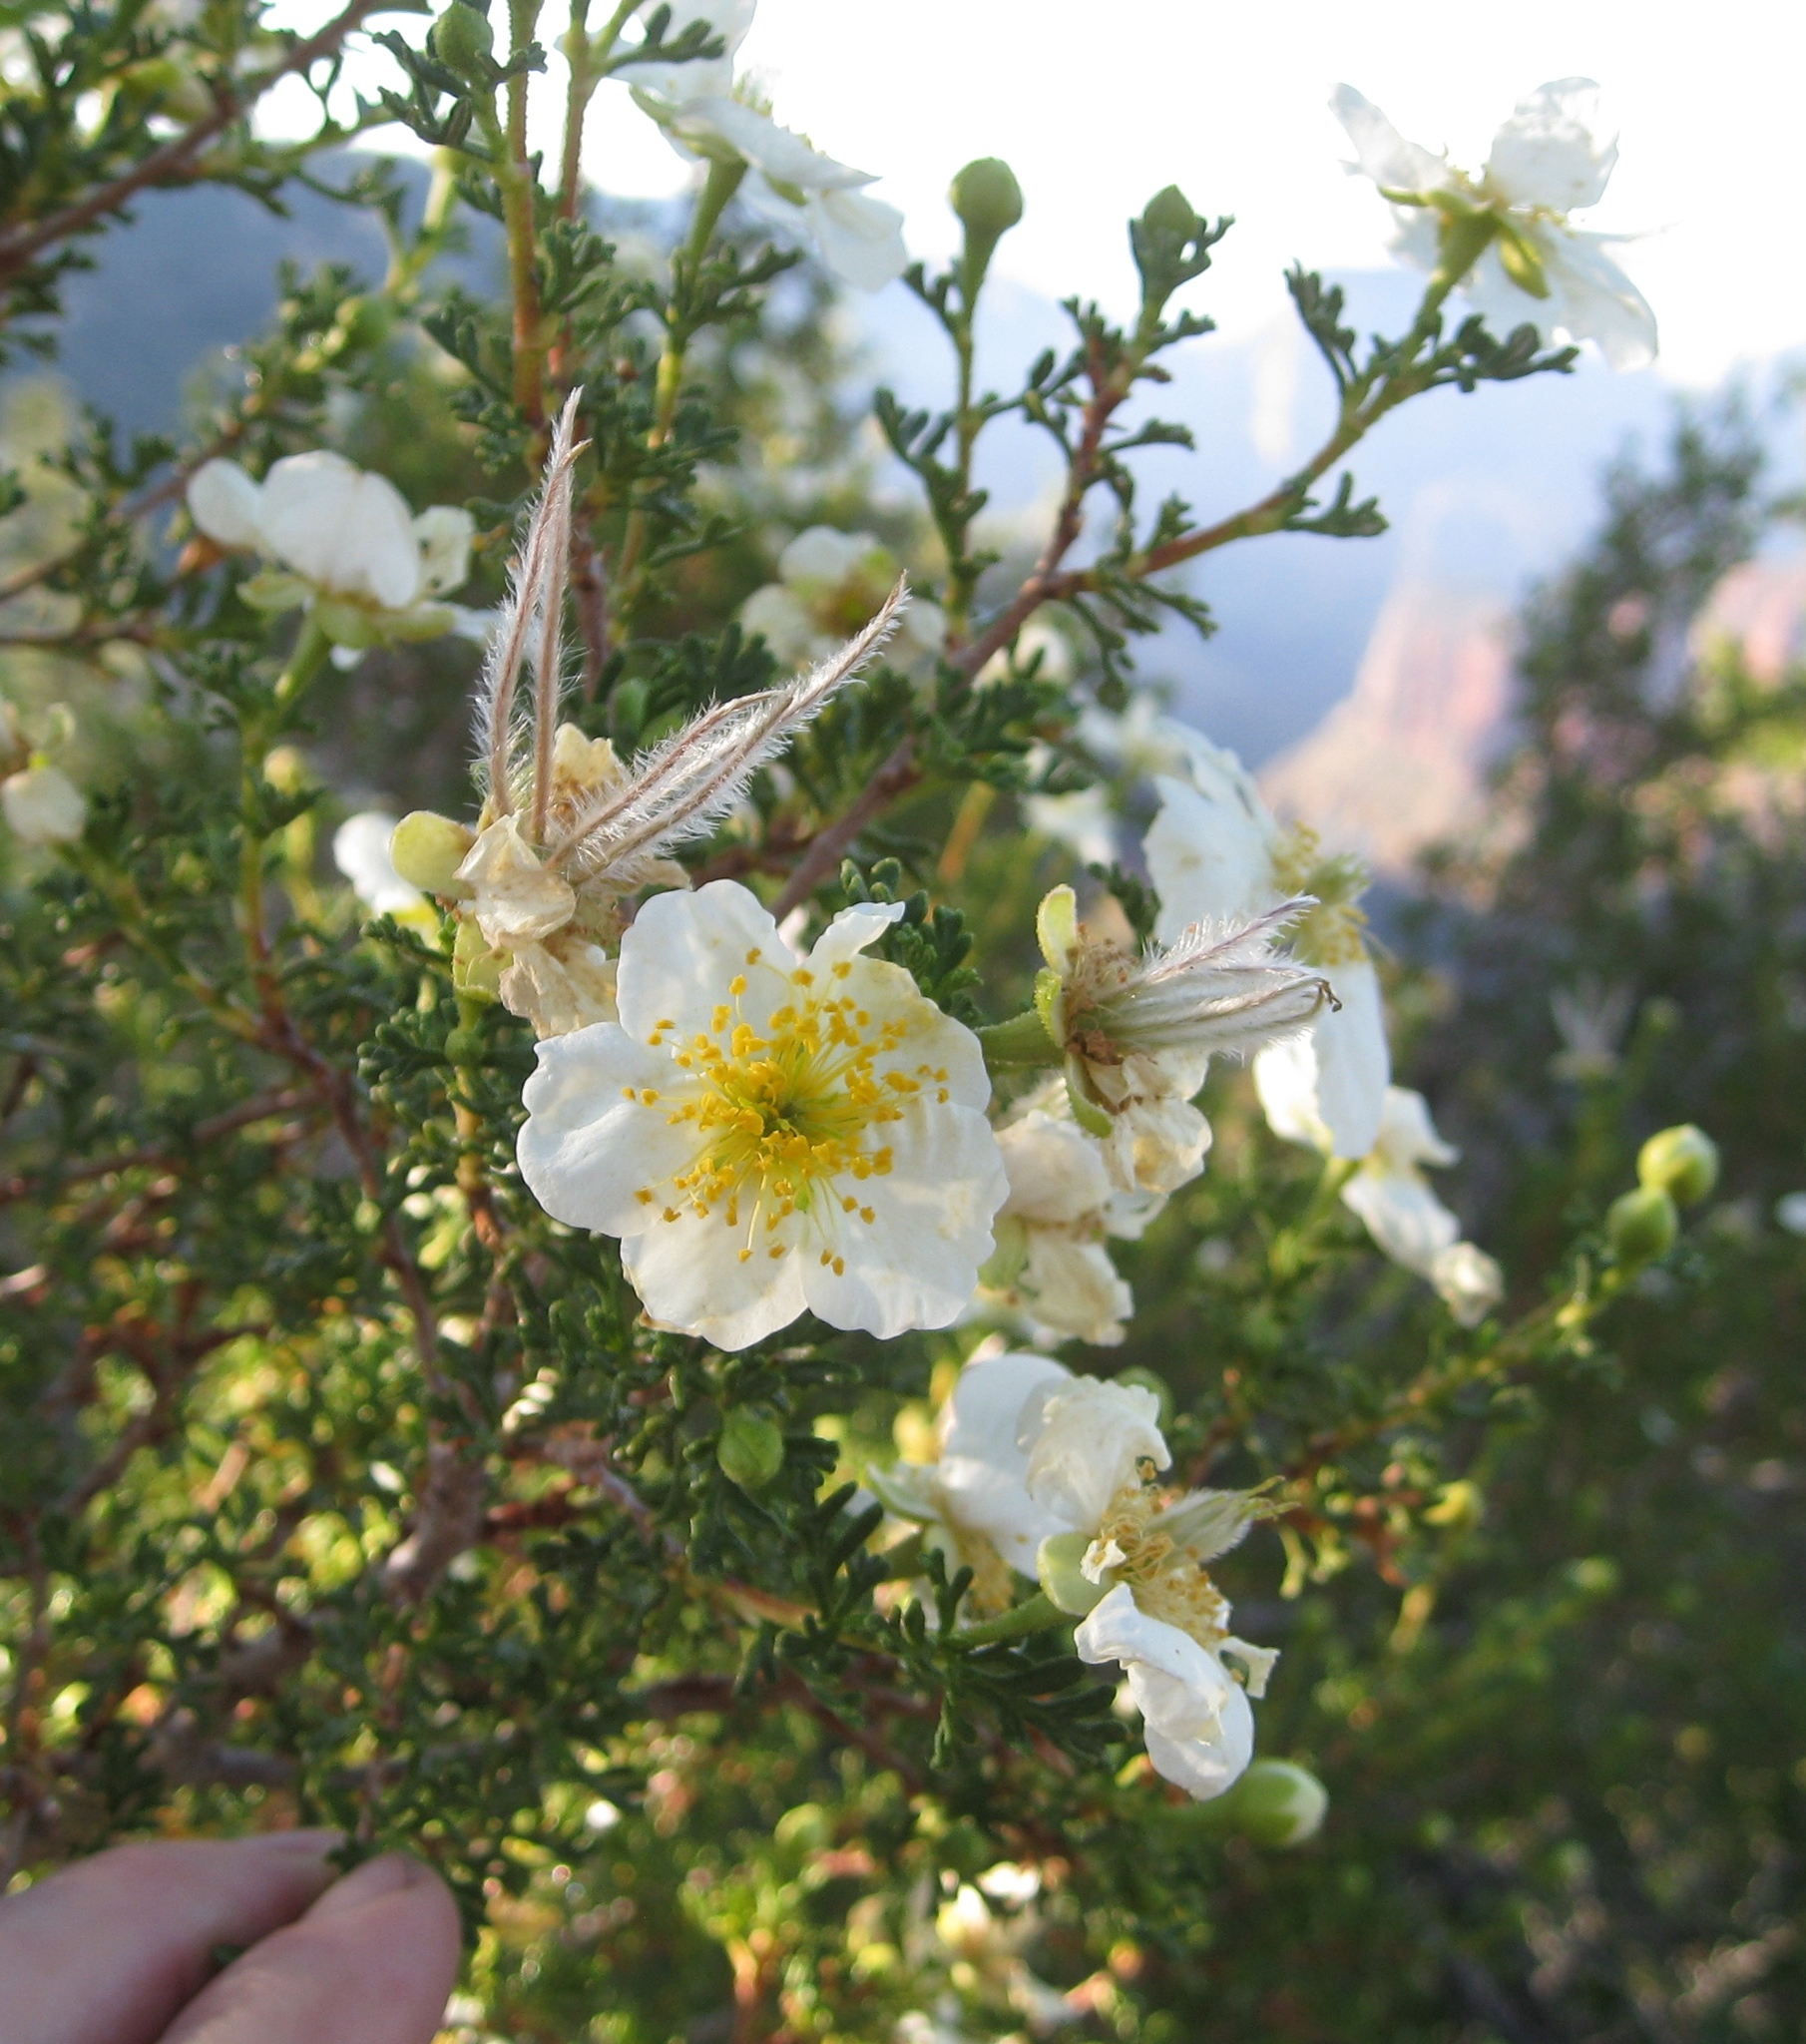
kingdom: Plantae
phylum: Tracheophyta
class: Magnoliopsida
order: Rosales
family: Rosaceae
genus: Purshia
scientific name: Purshia stansburiana
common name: Stansbury's cliffrose
